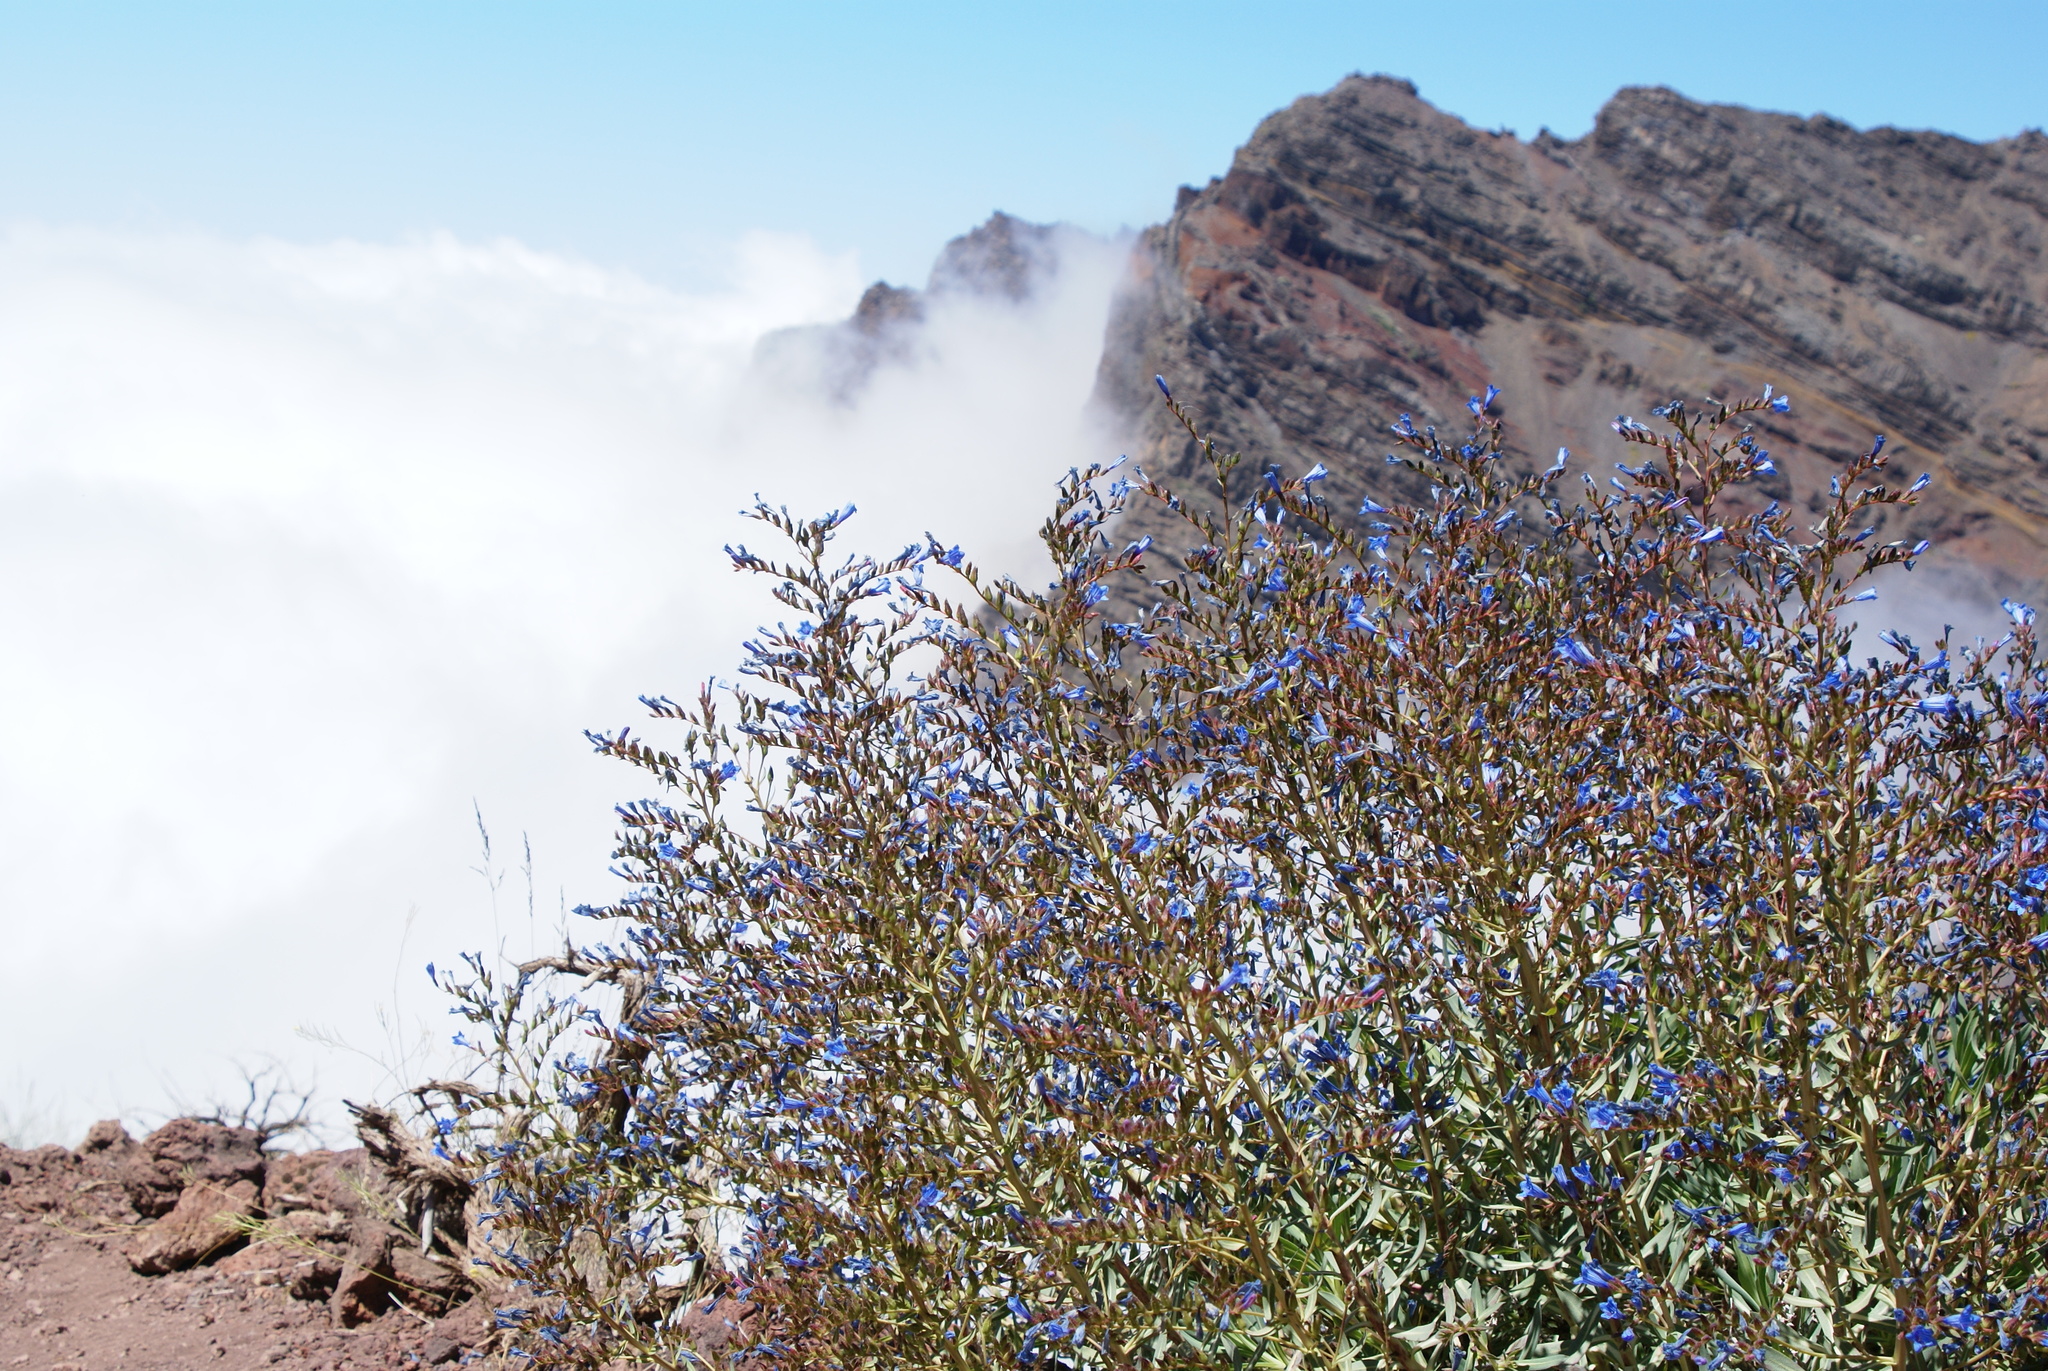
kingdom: Plantae
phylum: Tracheophyta
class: Magnoliopsida
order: Boraginales
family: Boraginaceae
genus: Echium
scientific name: Echium thyrsiflorum
